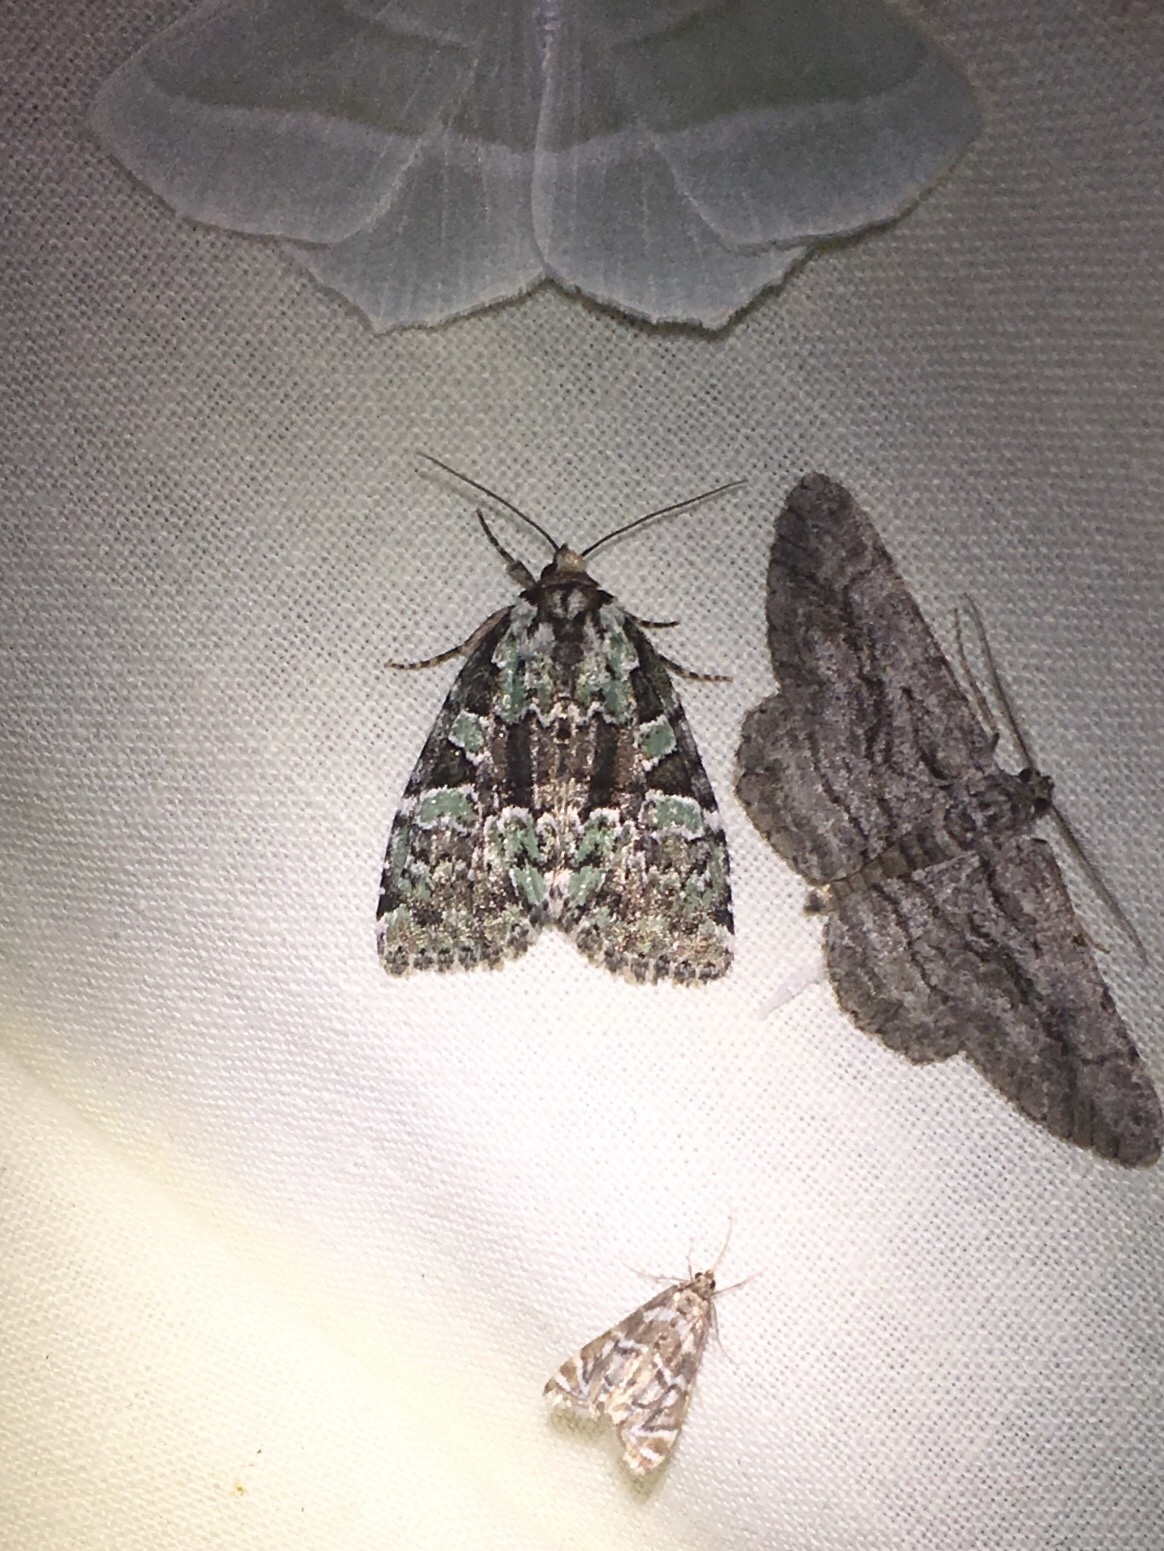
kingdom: Animalia
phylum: Arthropoda
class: Insecta
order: Lepidoptera
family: Noctuidae
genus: Leuconycta
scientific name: Leuconycta lepidula
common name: Marbled-green leuconycta moth
